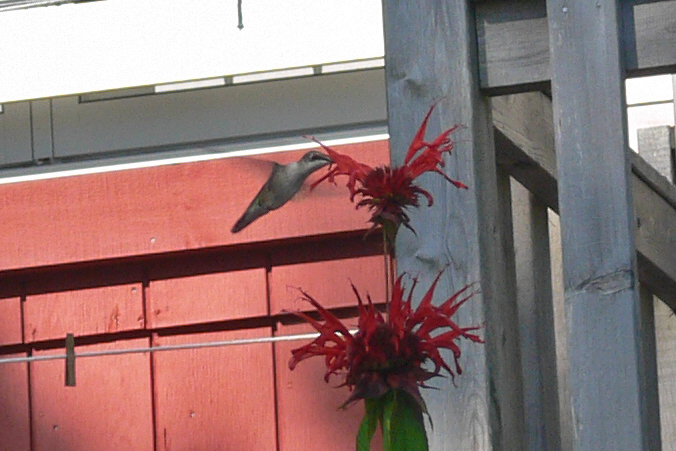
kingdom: Animalia
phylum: Chordata
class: Aves
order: Apodiformes
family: Trochilidae
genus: Archilochus
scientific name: Archilochus colubris
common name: Ruby-throated hummingbird
